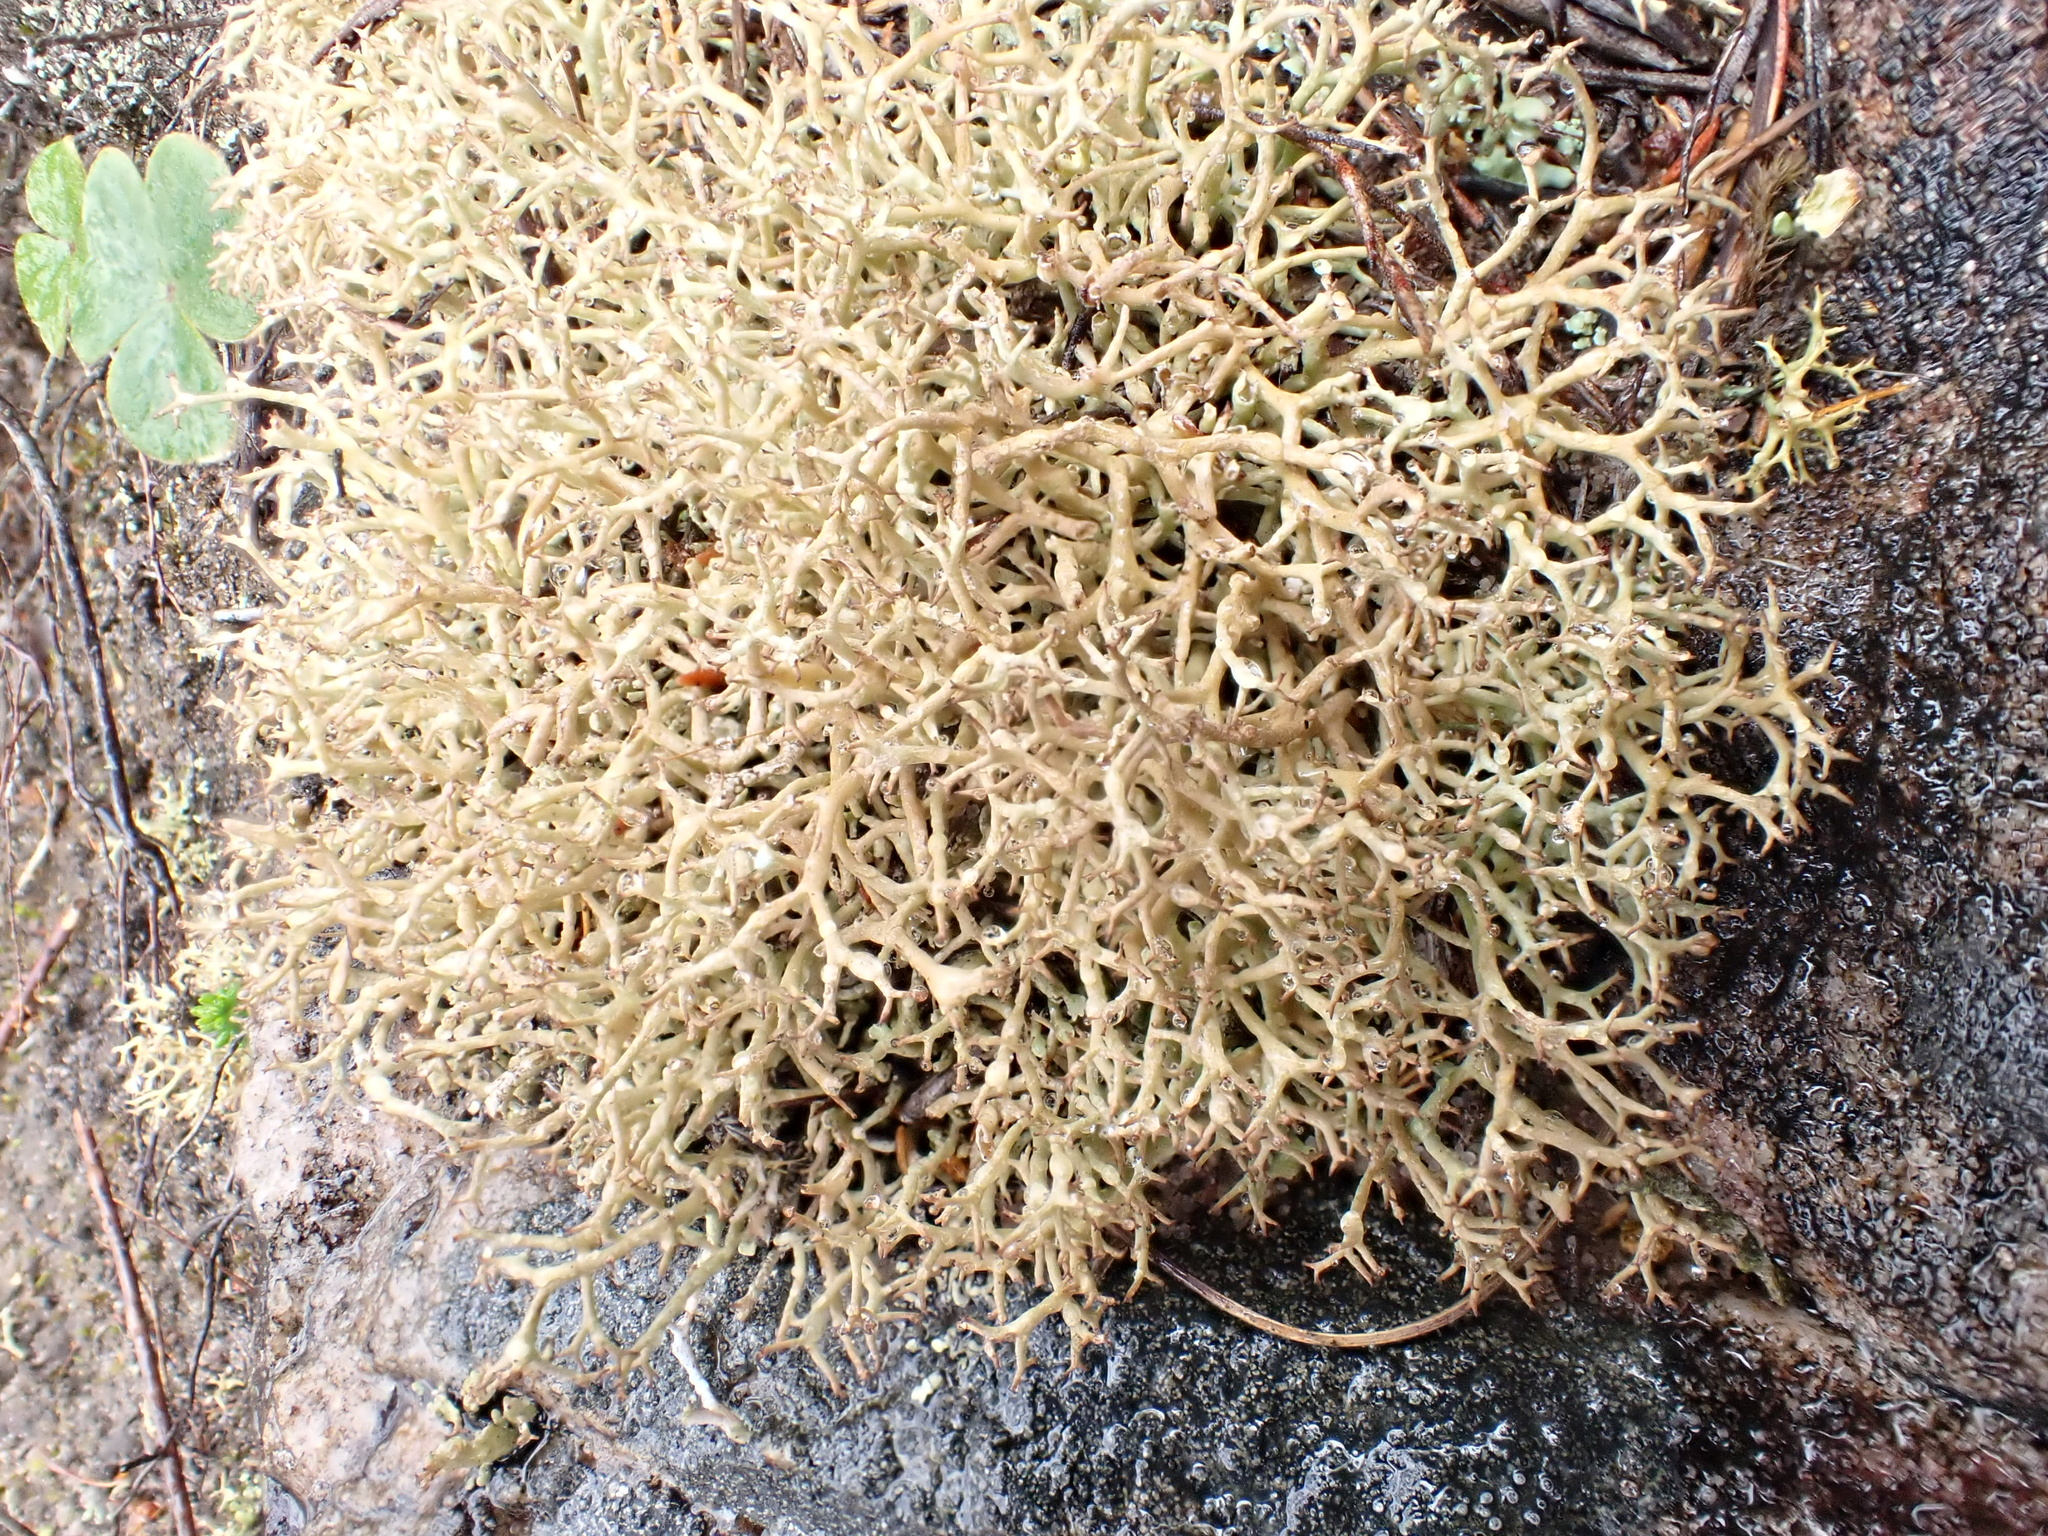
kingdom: Fungi
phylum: Ascomycota
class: Lecanoromycetes
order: Lecanorales
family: Cladoniaceae
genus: Cladonia
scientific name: Cladonia
